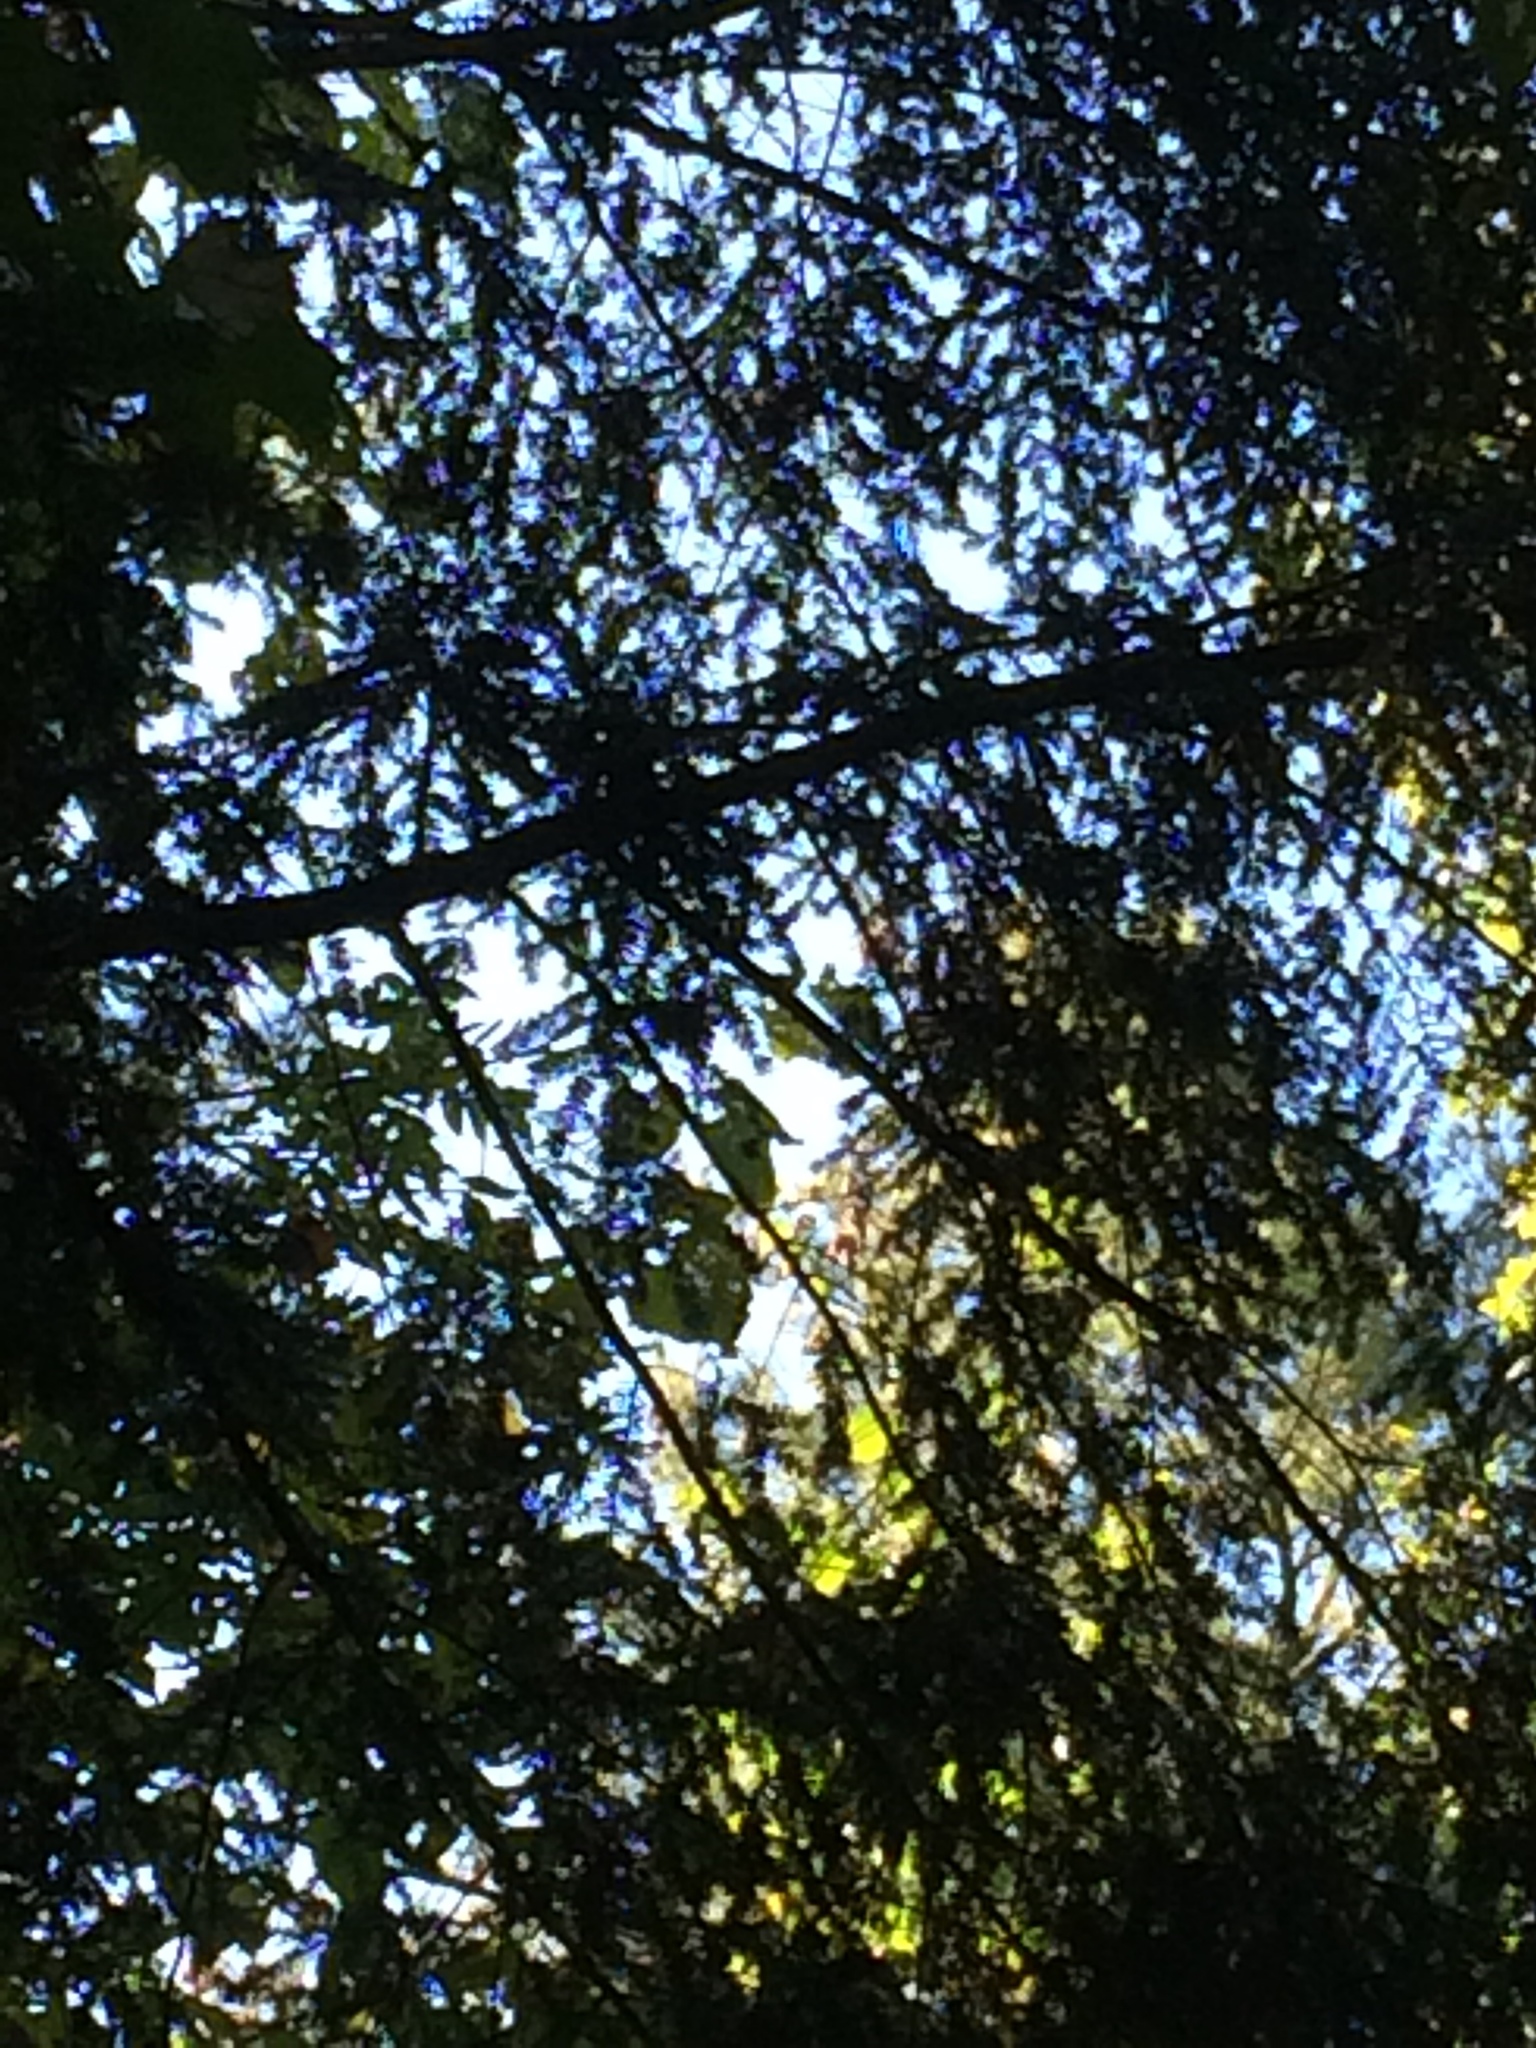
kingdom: Plantae
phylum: Tracheophyta
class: Pinopsida
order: Pinales
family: Pinaceae
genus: Tsuga
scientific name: Tsuga canadensis
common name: Eastern hemlock
